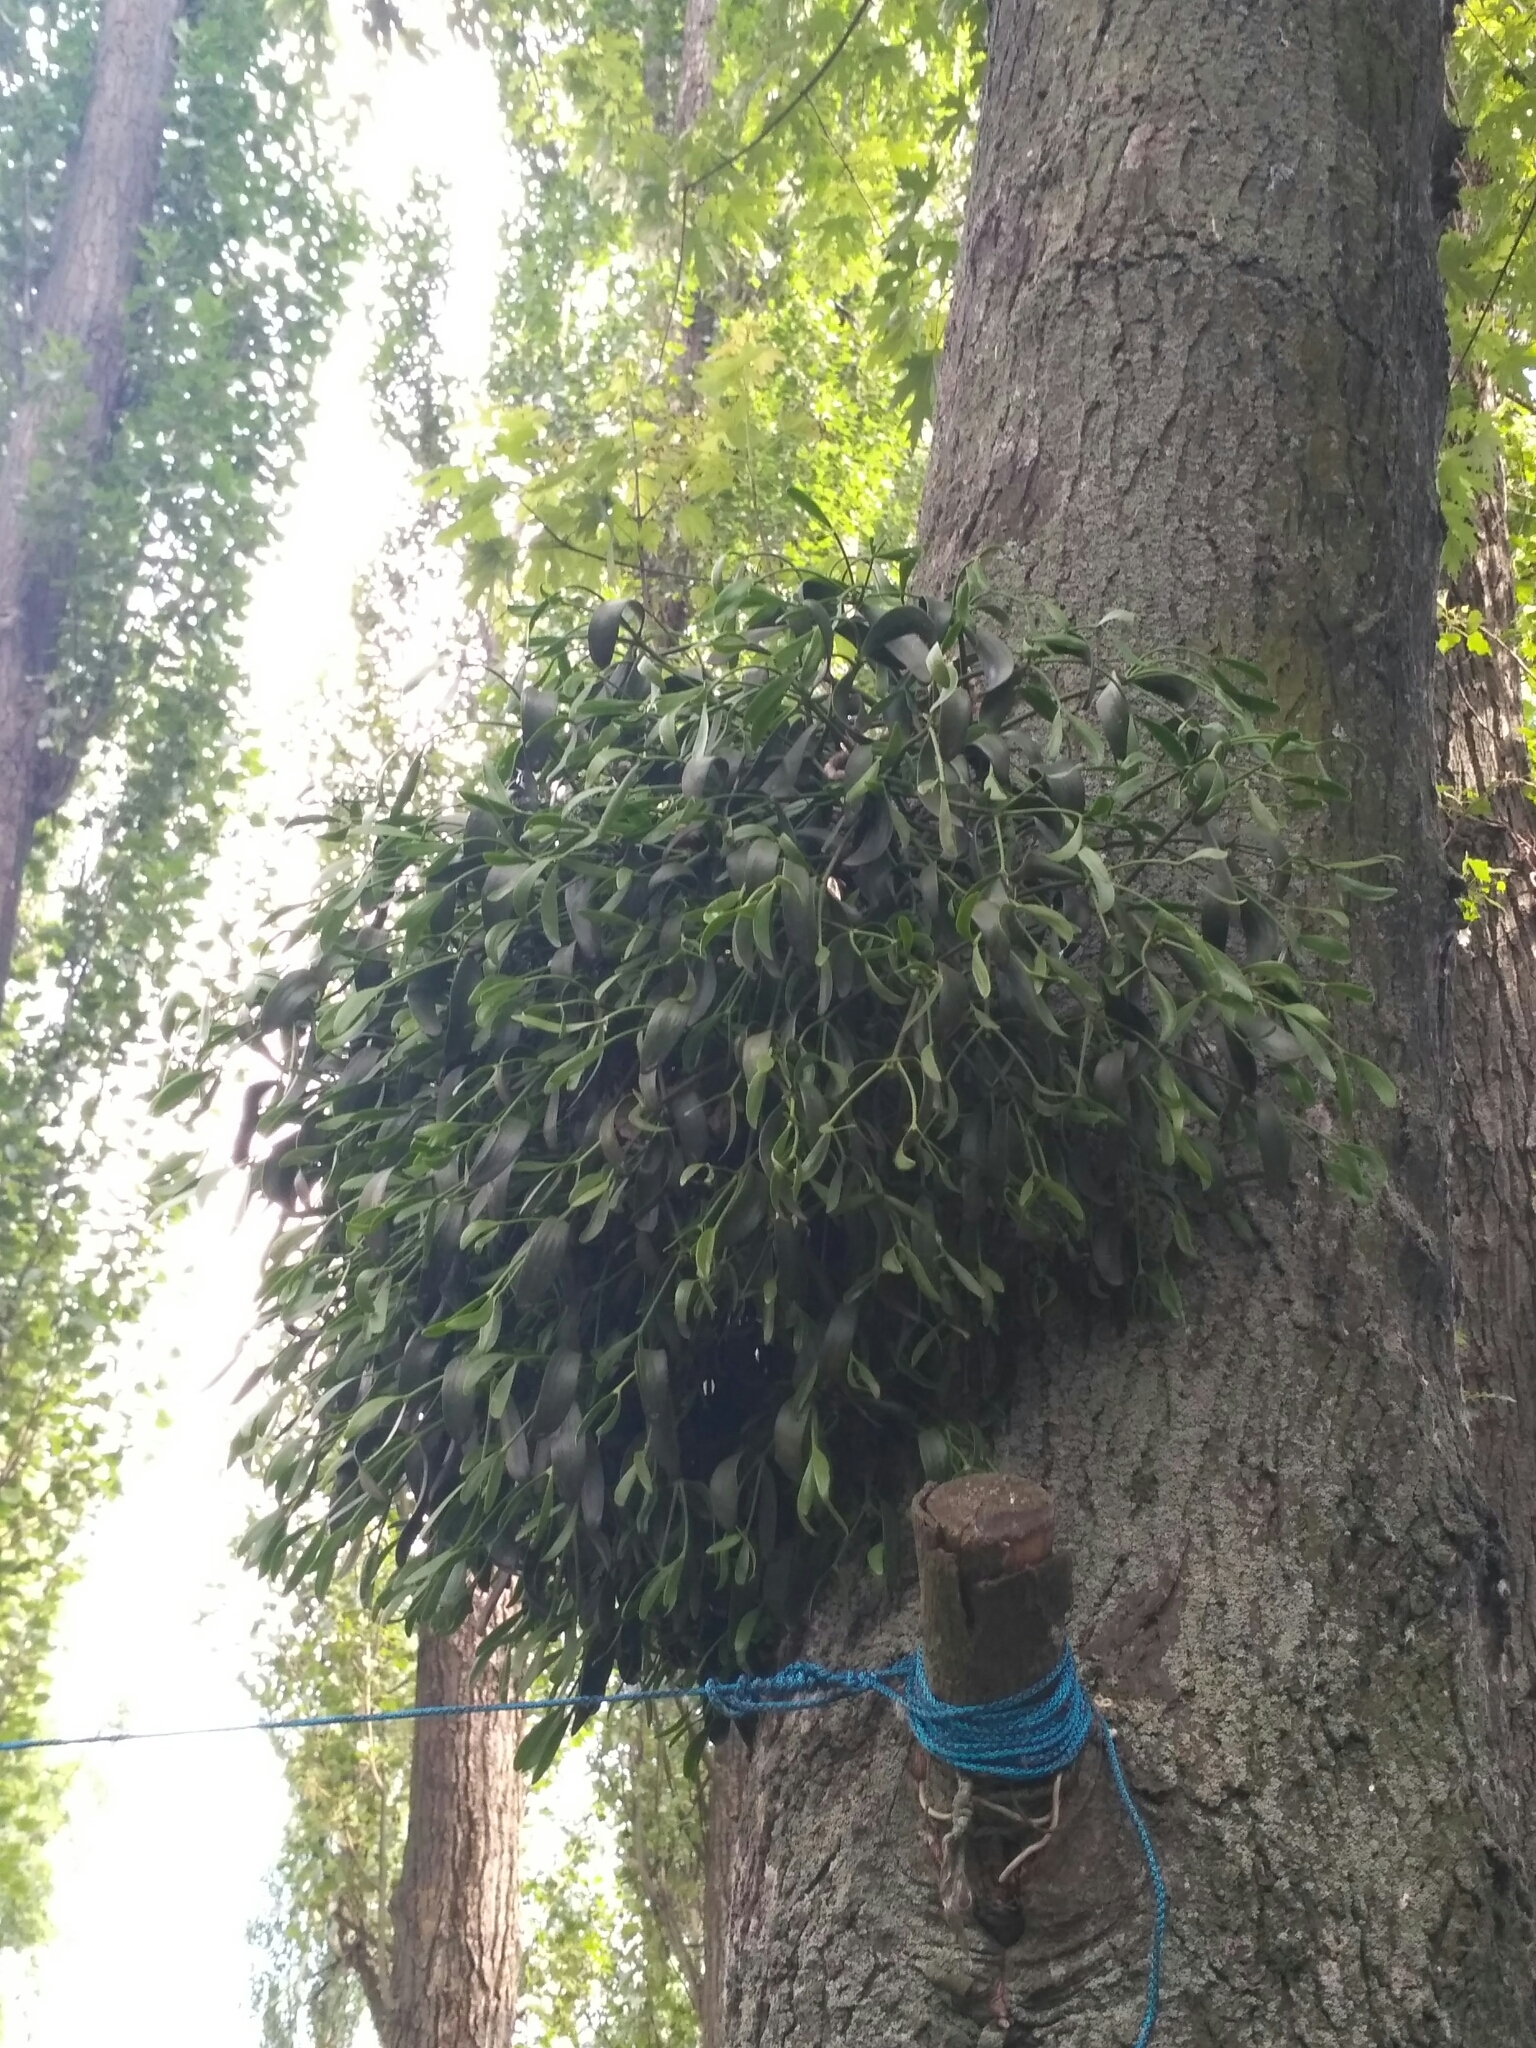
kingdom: Plantae
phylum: Tracheophyta
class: Magnoliopsida
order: Santalales
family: Viscaceae
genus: Viscum
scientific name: Viscum album
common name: Mistletoe
